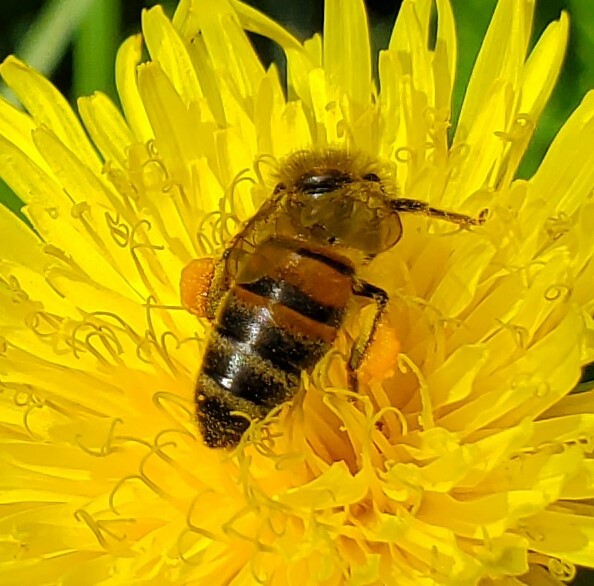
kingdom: Animalia
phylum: Arthropoda
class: Insecta
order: Hymenoptera
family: Apidae
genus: Apis
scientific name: Apis mellifera
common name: Honey bee
